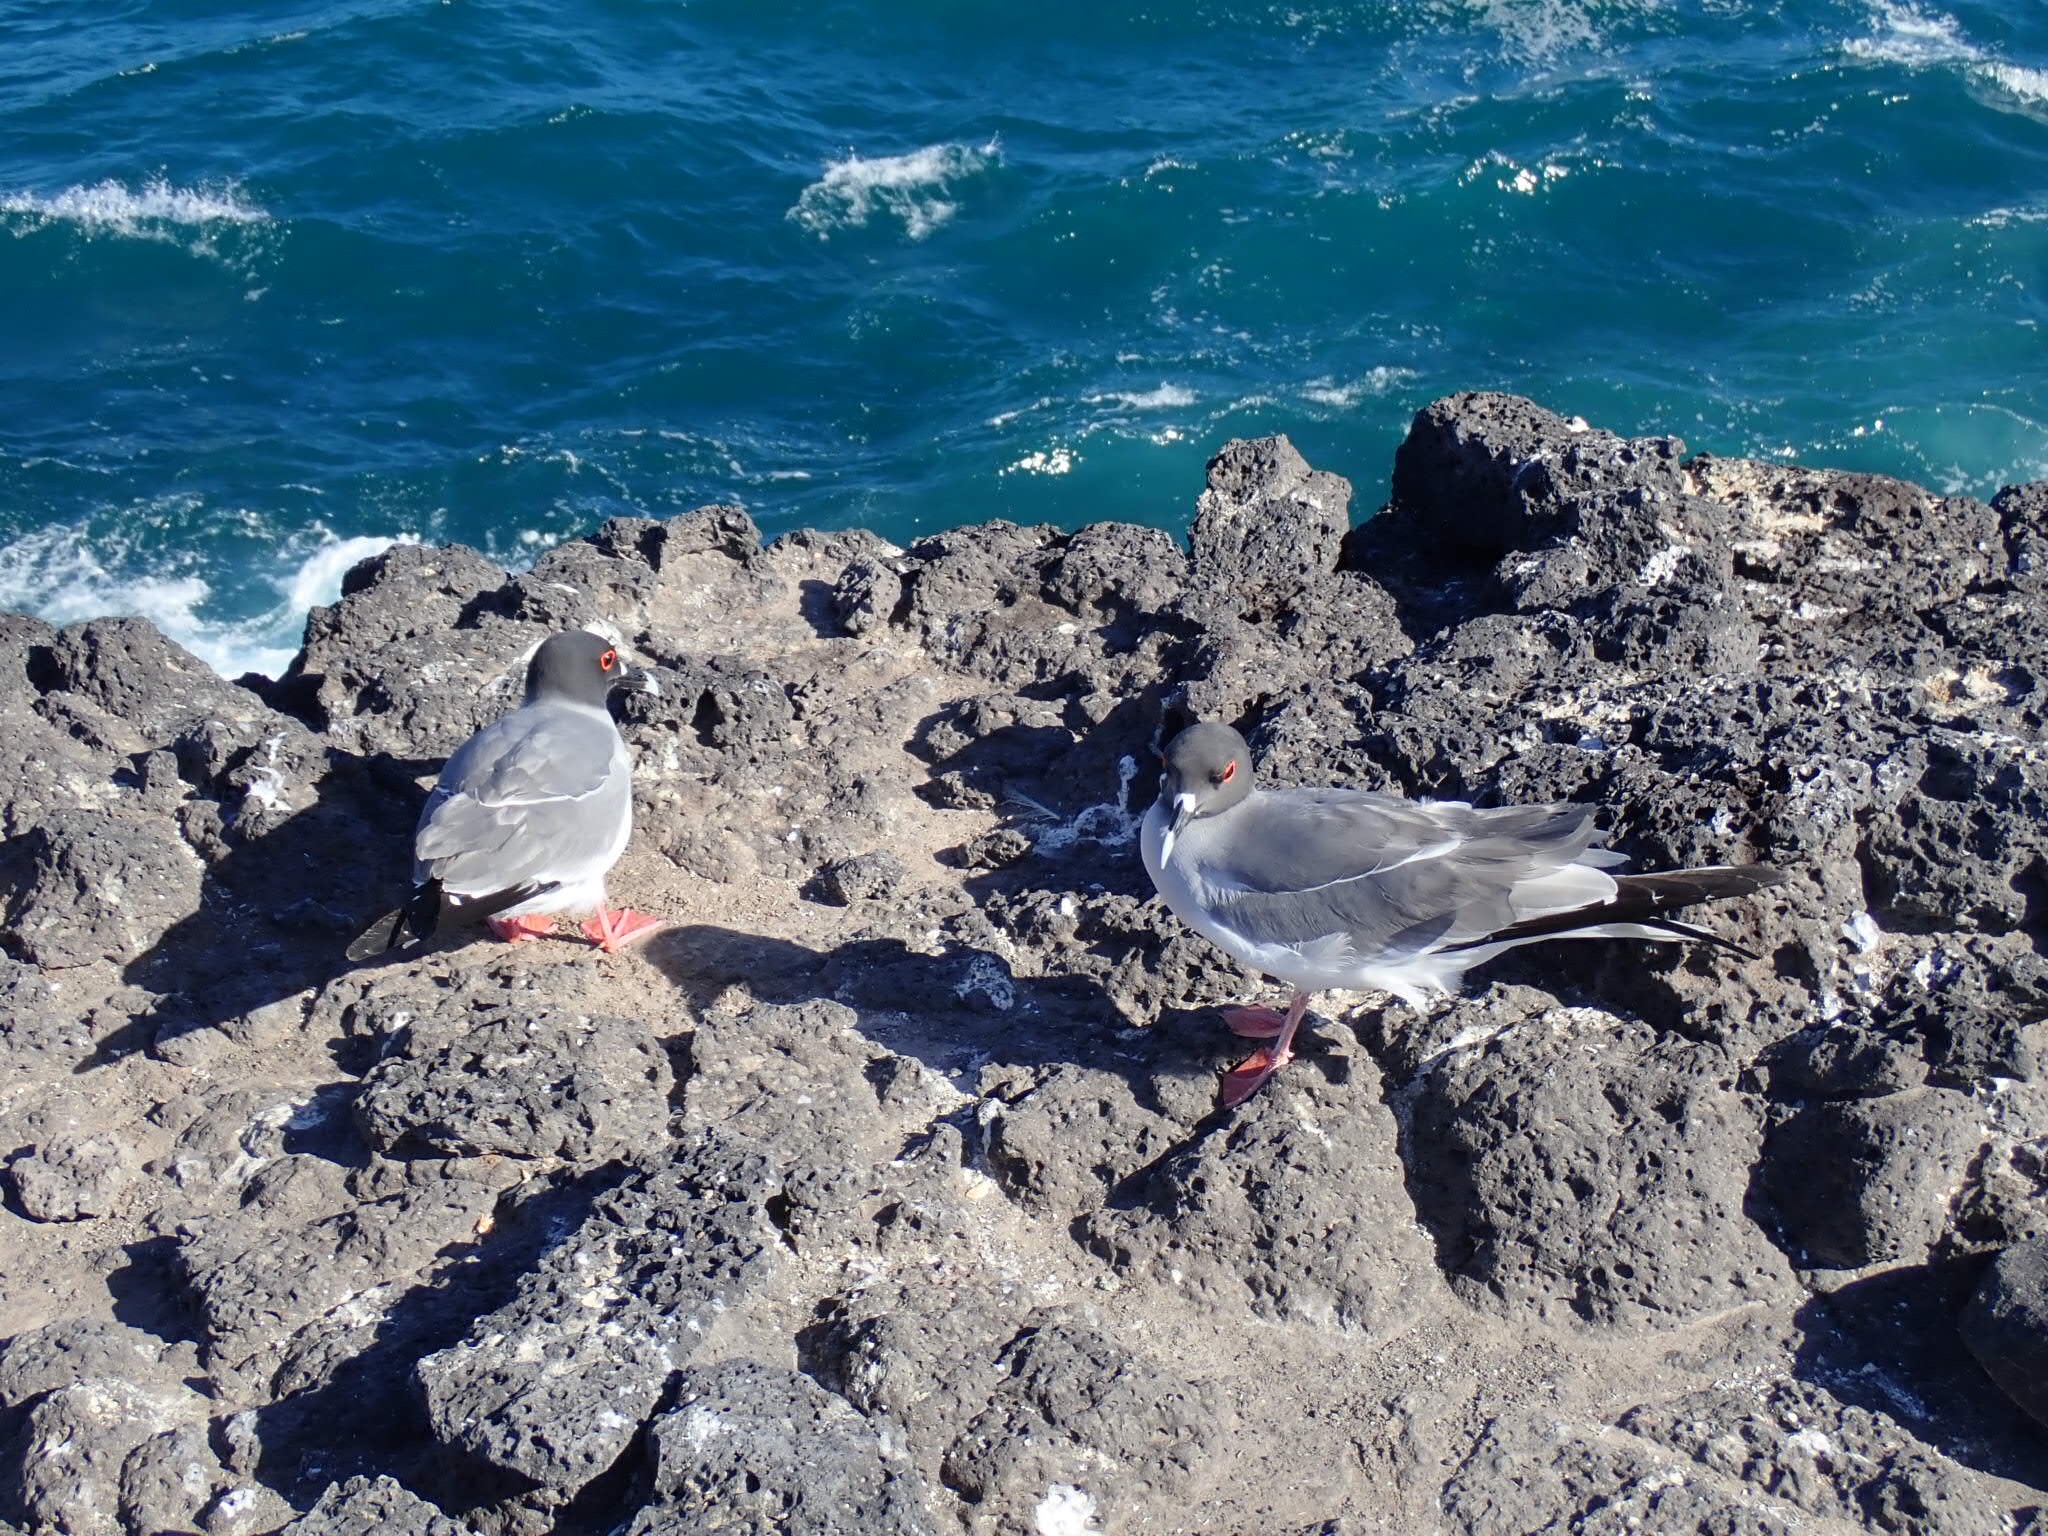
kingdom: Animalia
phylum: Chordata
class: Aves
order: Charadriiformes
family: Laridae
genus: Creagrus
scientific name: Creagrus furcatus
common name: Swallow-tailed gull
